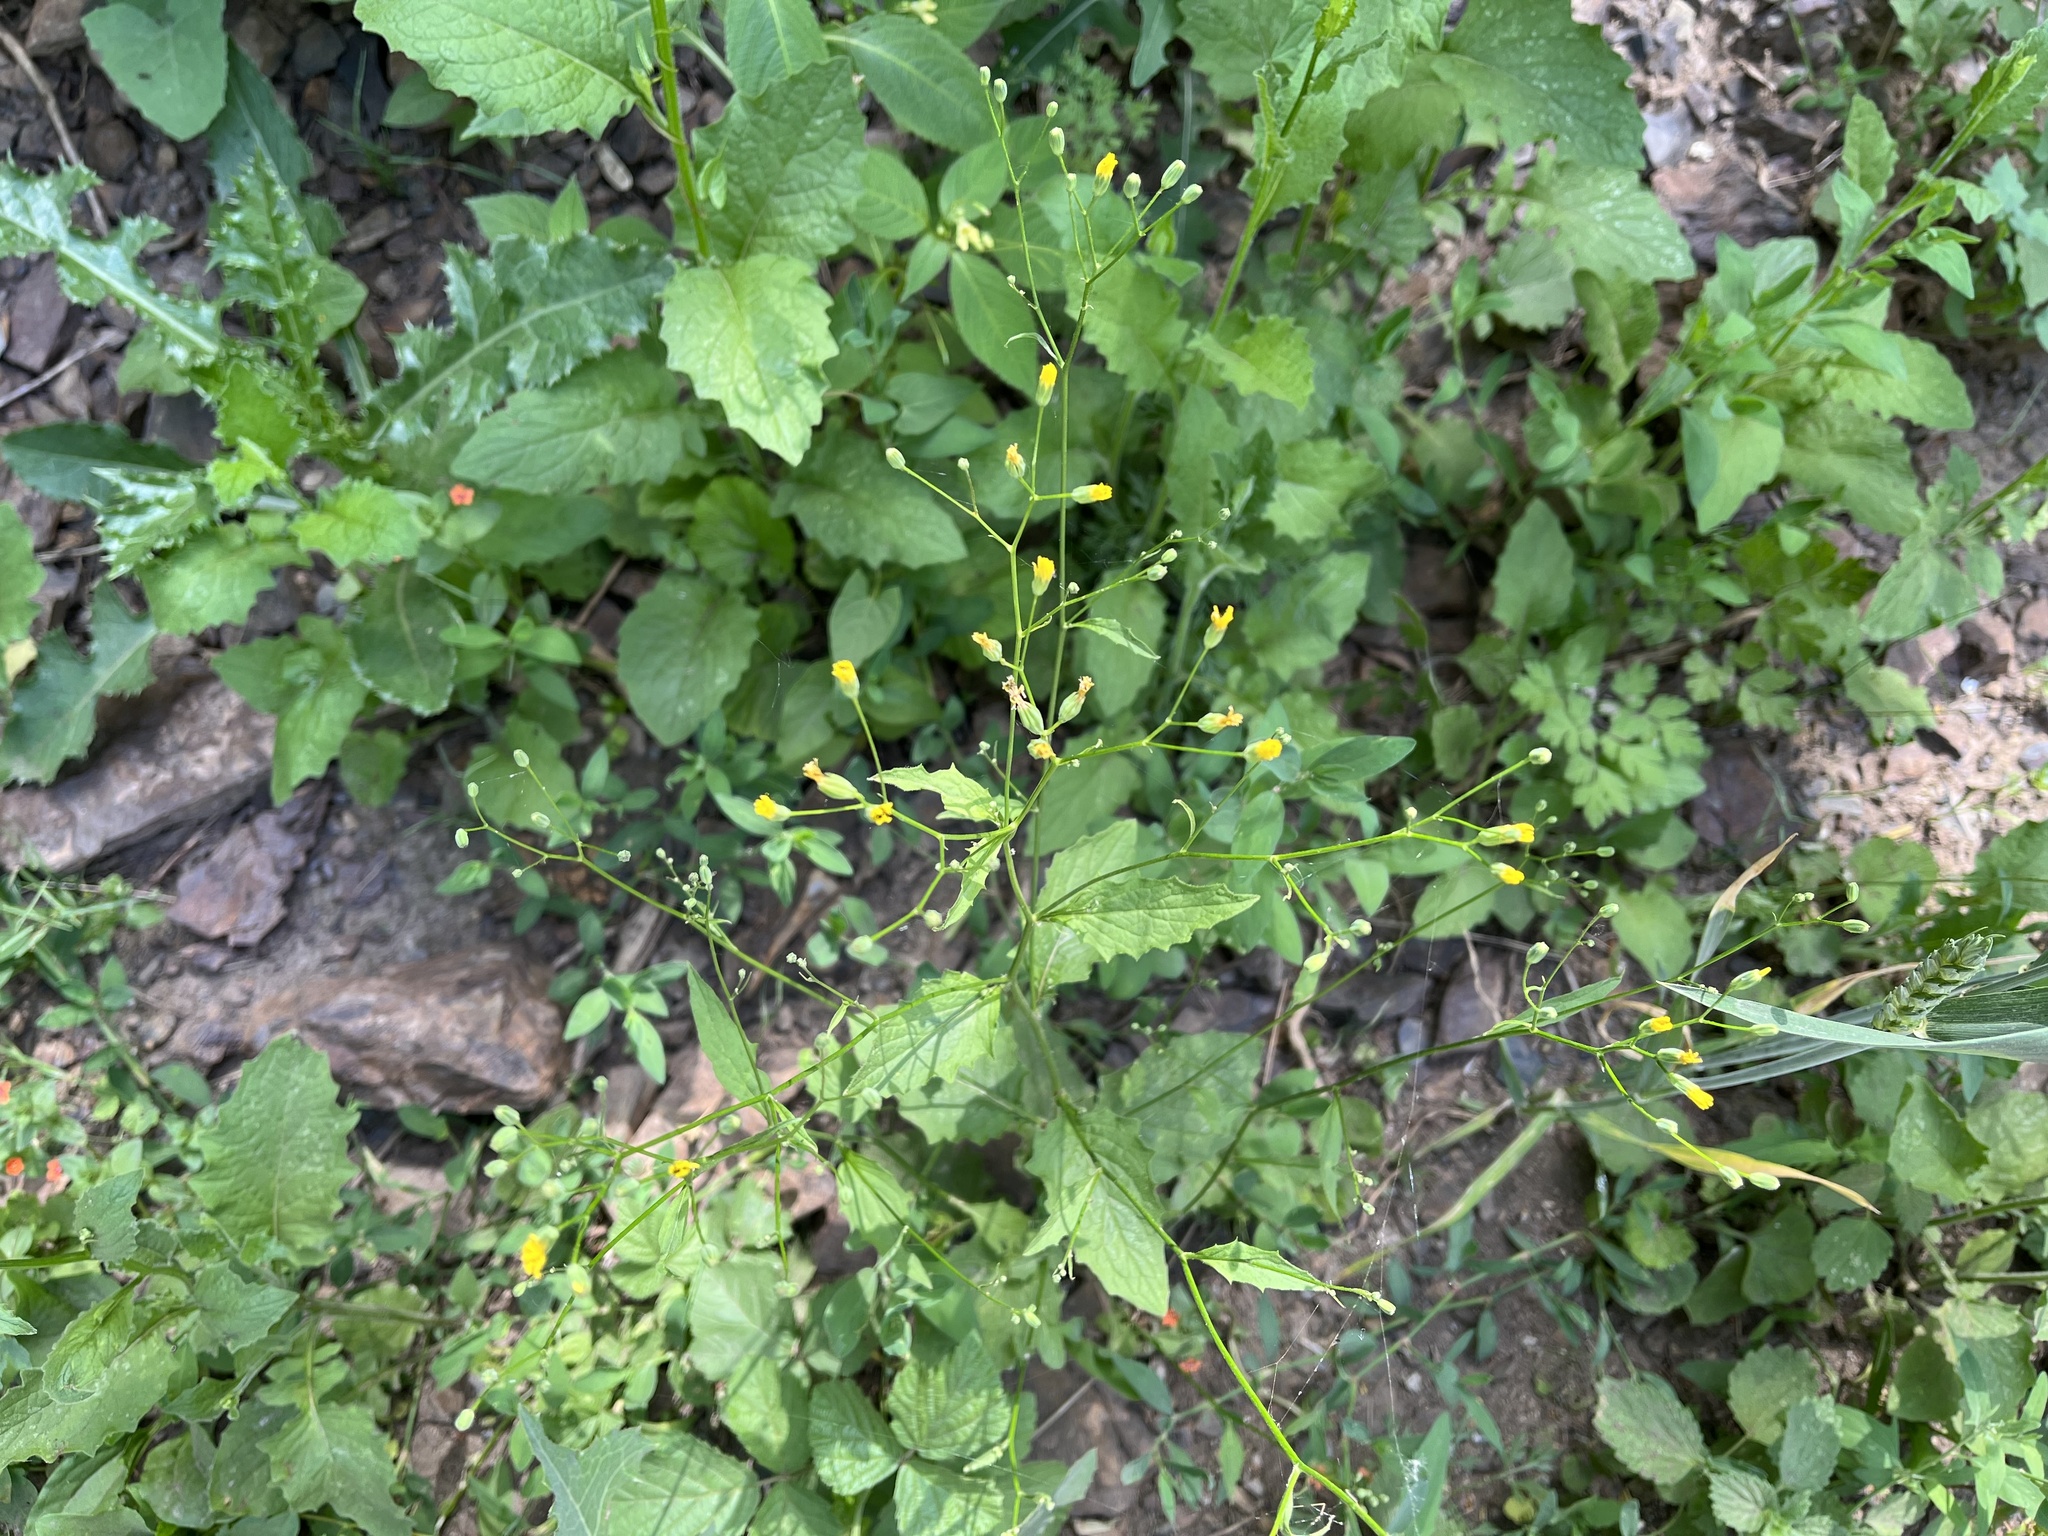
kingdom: Plantae
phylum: Tracheophyta
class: Magnoliopsida
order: Asterales
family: Asteraceae
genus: Lapsana
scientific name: Lapsana communis
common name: Nipplewort
